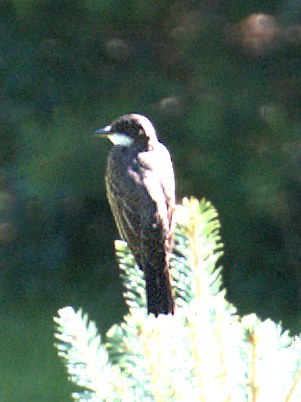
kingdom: Animalia
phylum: Chordata
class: Aves
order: Passeriformes
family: Tyrannidae
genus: Tyrannus
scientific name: Tyrannus tyrannus
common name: Eastern kingbird
